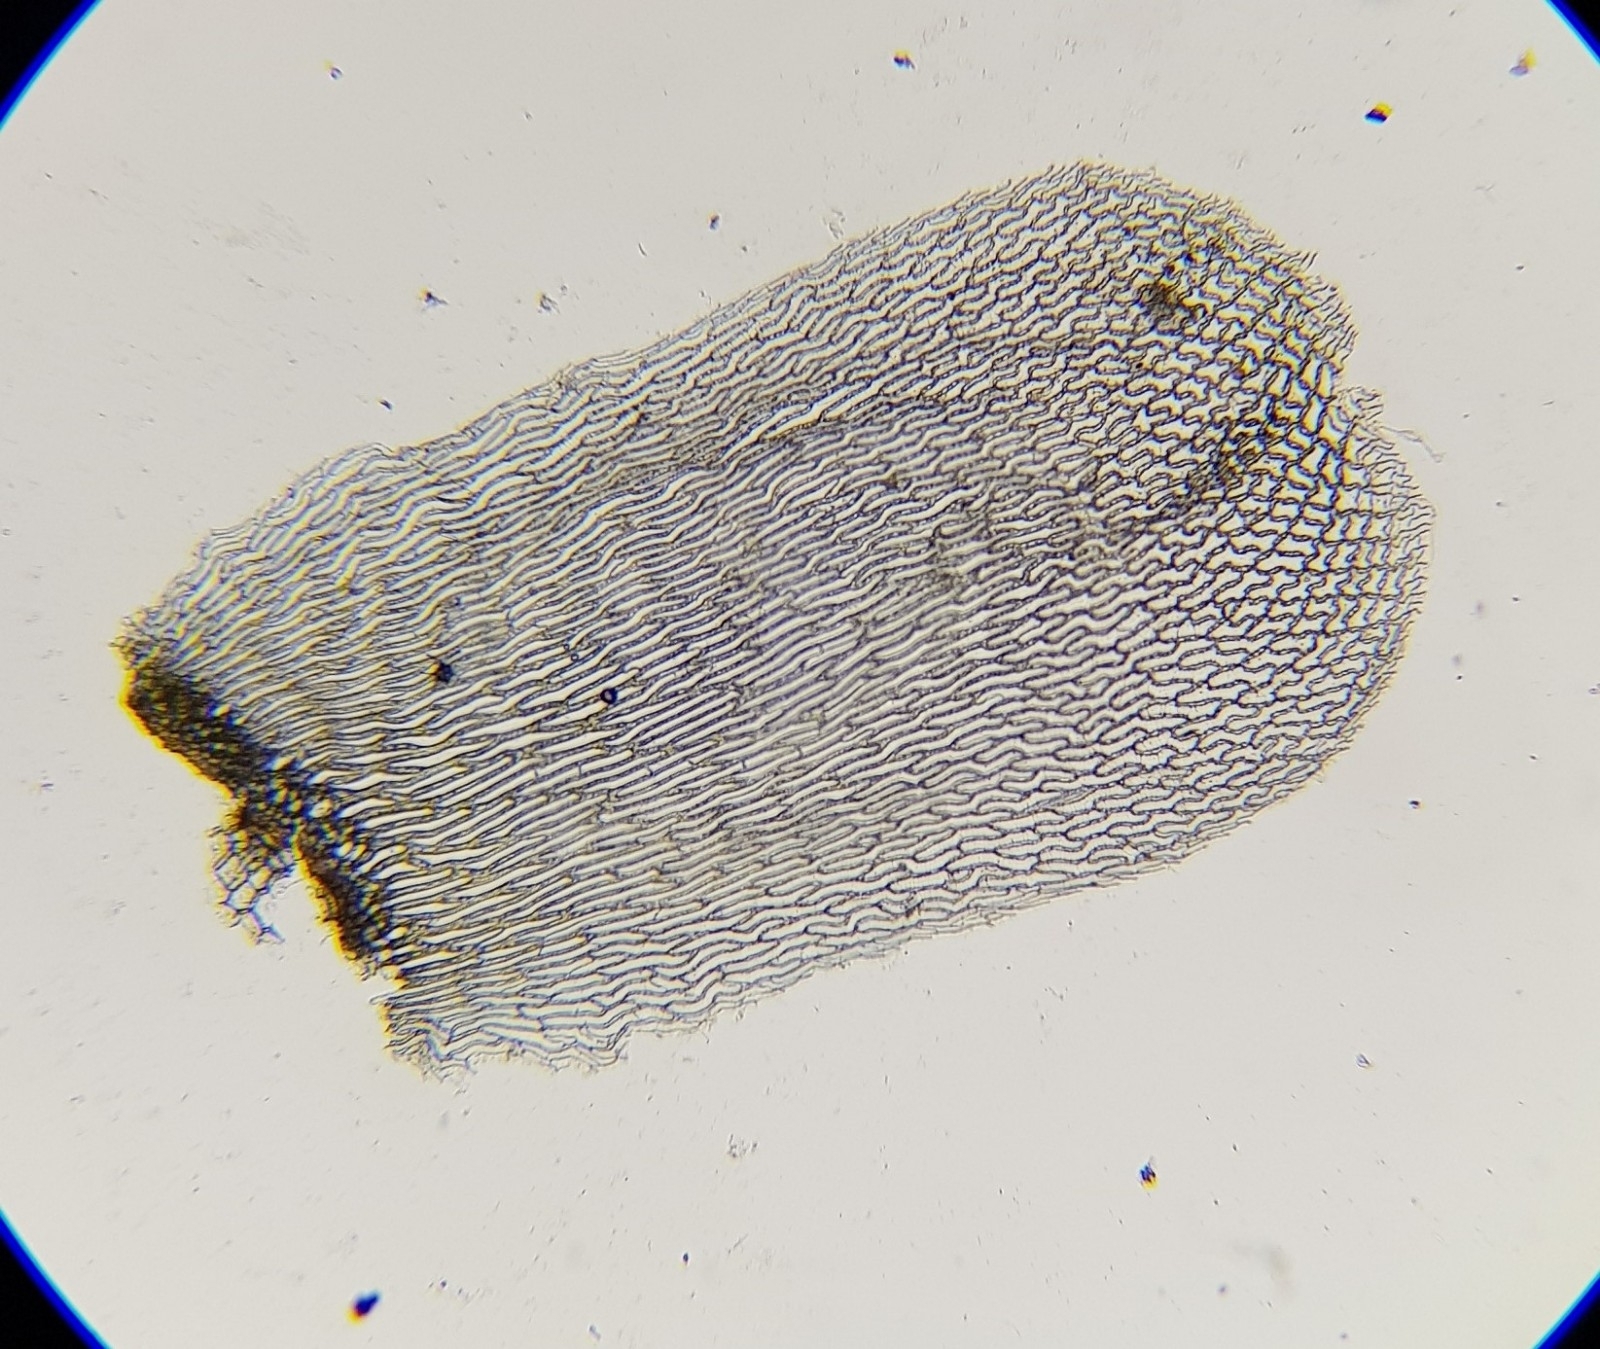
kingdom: Plantae
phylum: Bryophyta
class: Sphagnopsida
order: Sphagnales
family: Sphagnaceae
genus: Sphagnum
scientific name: Sphagnum palustre
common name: Blunt-leaved bog-moss
